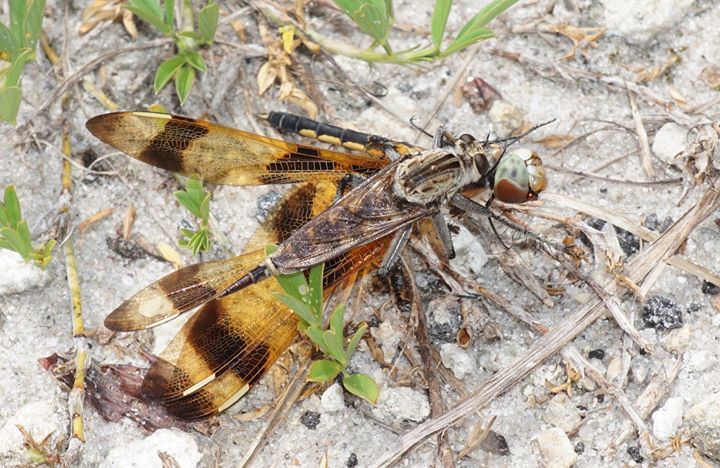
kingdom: Animalia
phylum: Arthropoda
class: Insecta
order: Diptera
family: Asilidae
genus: Triorla
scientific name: Triorla interrupta
